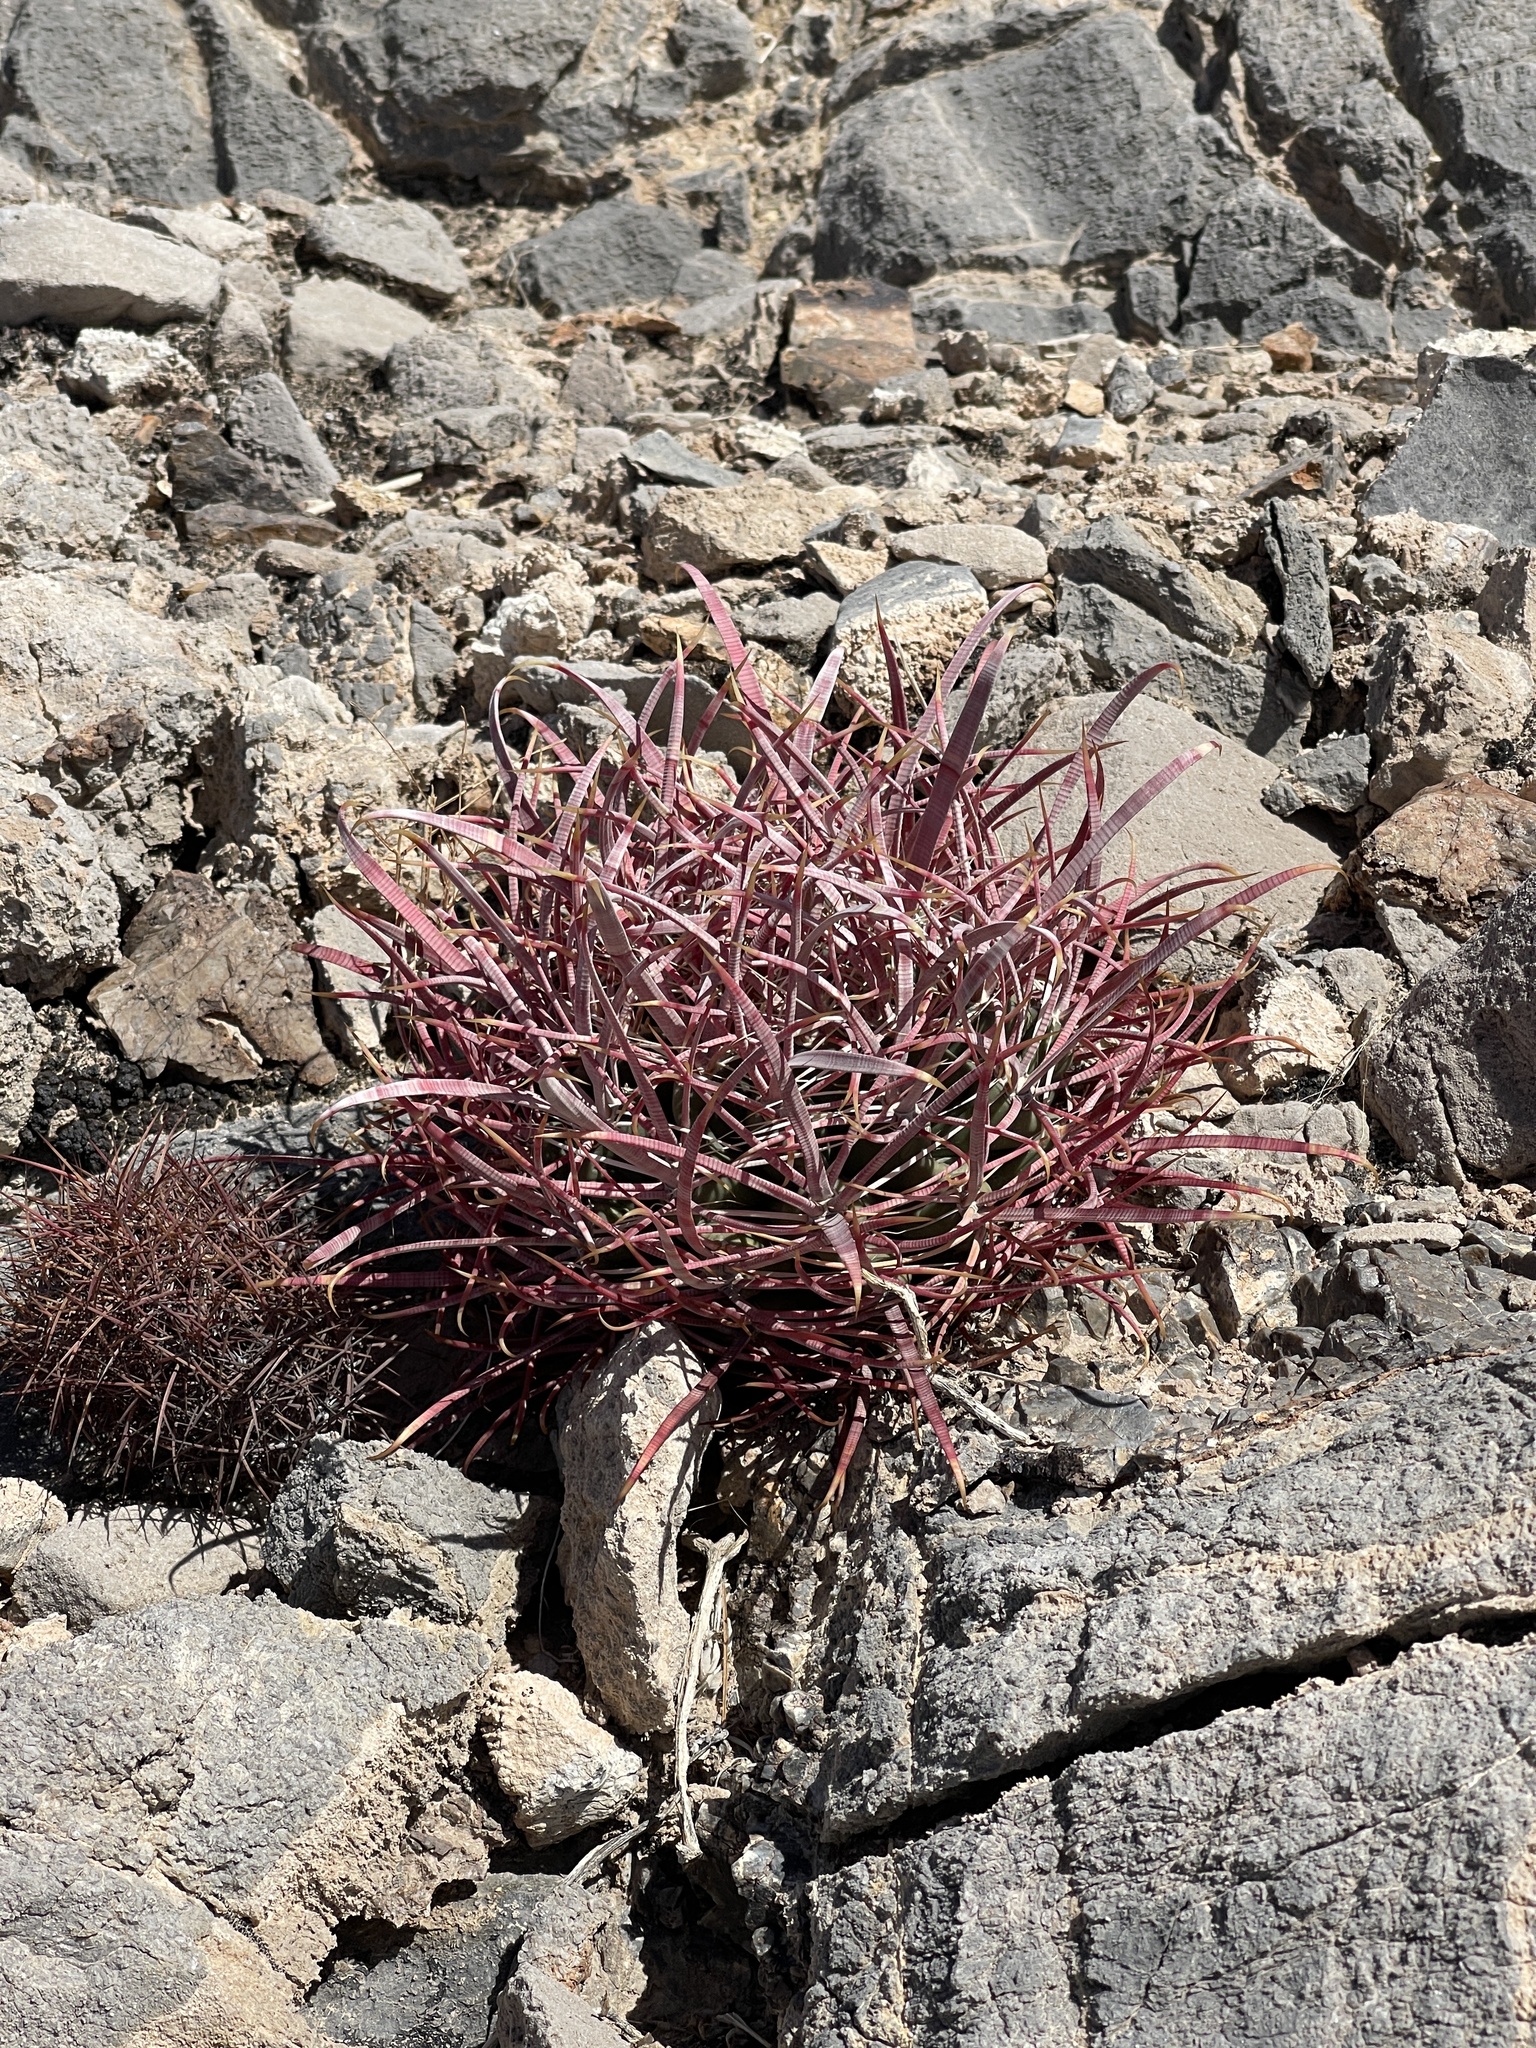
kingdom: Plantae
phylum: Tracheophyta
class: Magnoliopsida
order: Caryophyllales
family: Cactaceae
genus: Ferocactus
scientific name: Ferocactus cylindraceus
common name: California barrel cactus
